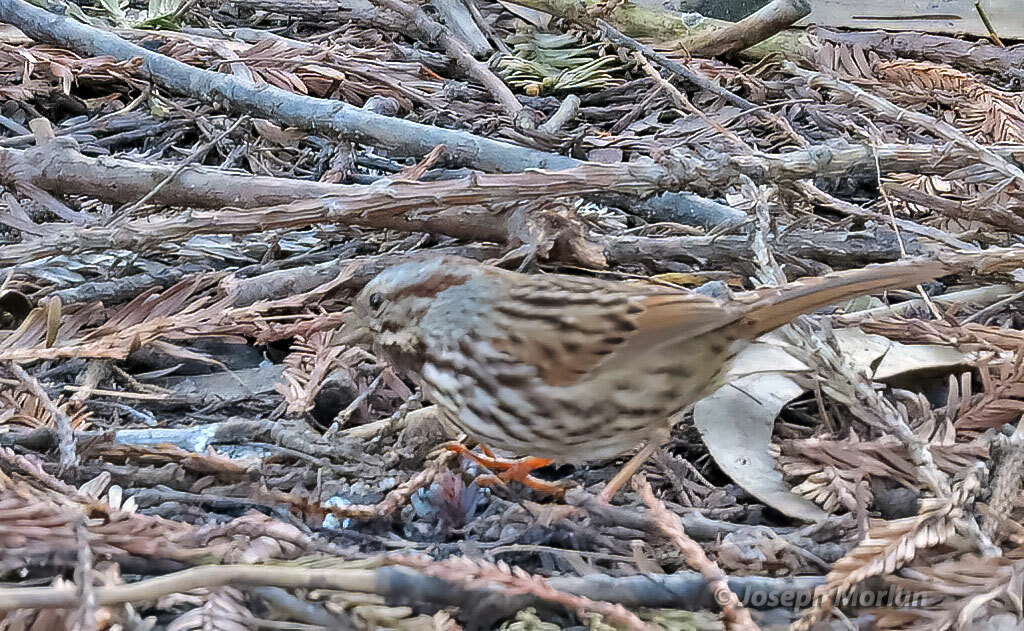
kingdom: Animalia
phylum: Chordata
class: Aves
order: Passeriformes
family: Passerellidae
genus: Melospiza
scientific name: Melospiza melodia
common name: Song sparrow
